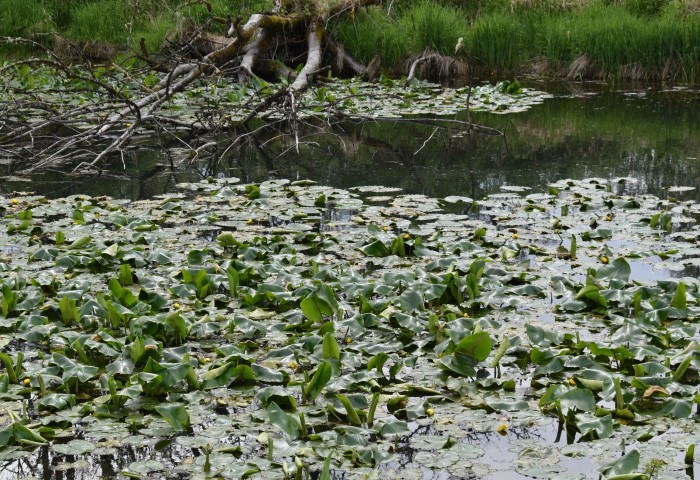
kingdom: Plantae
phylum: Tracheophyta
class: Magnoliopsida
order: Nymphaeales
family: Nymphaeaceae
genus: Nuphar
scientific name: Nuphar polysepala
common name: Rocky mountain cow-lily
